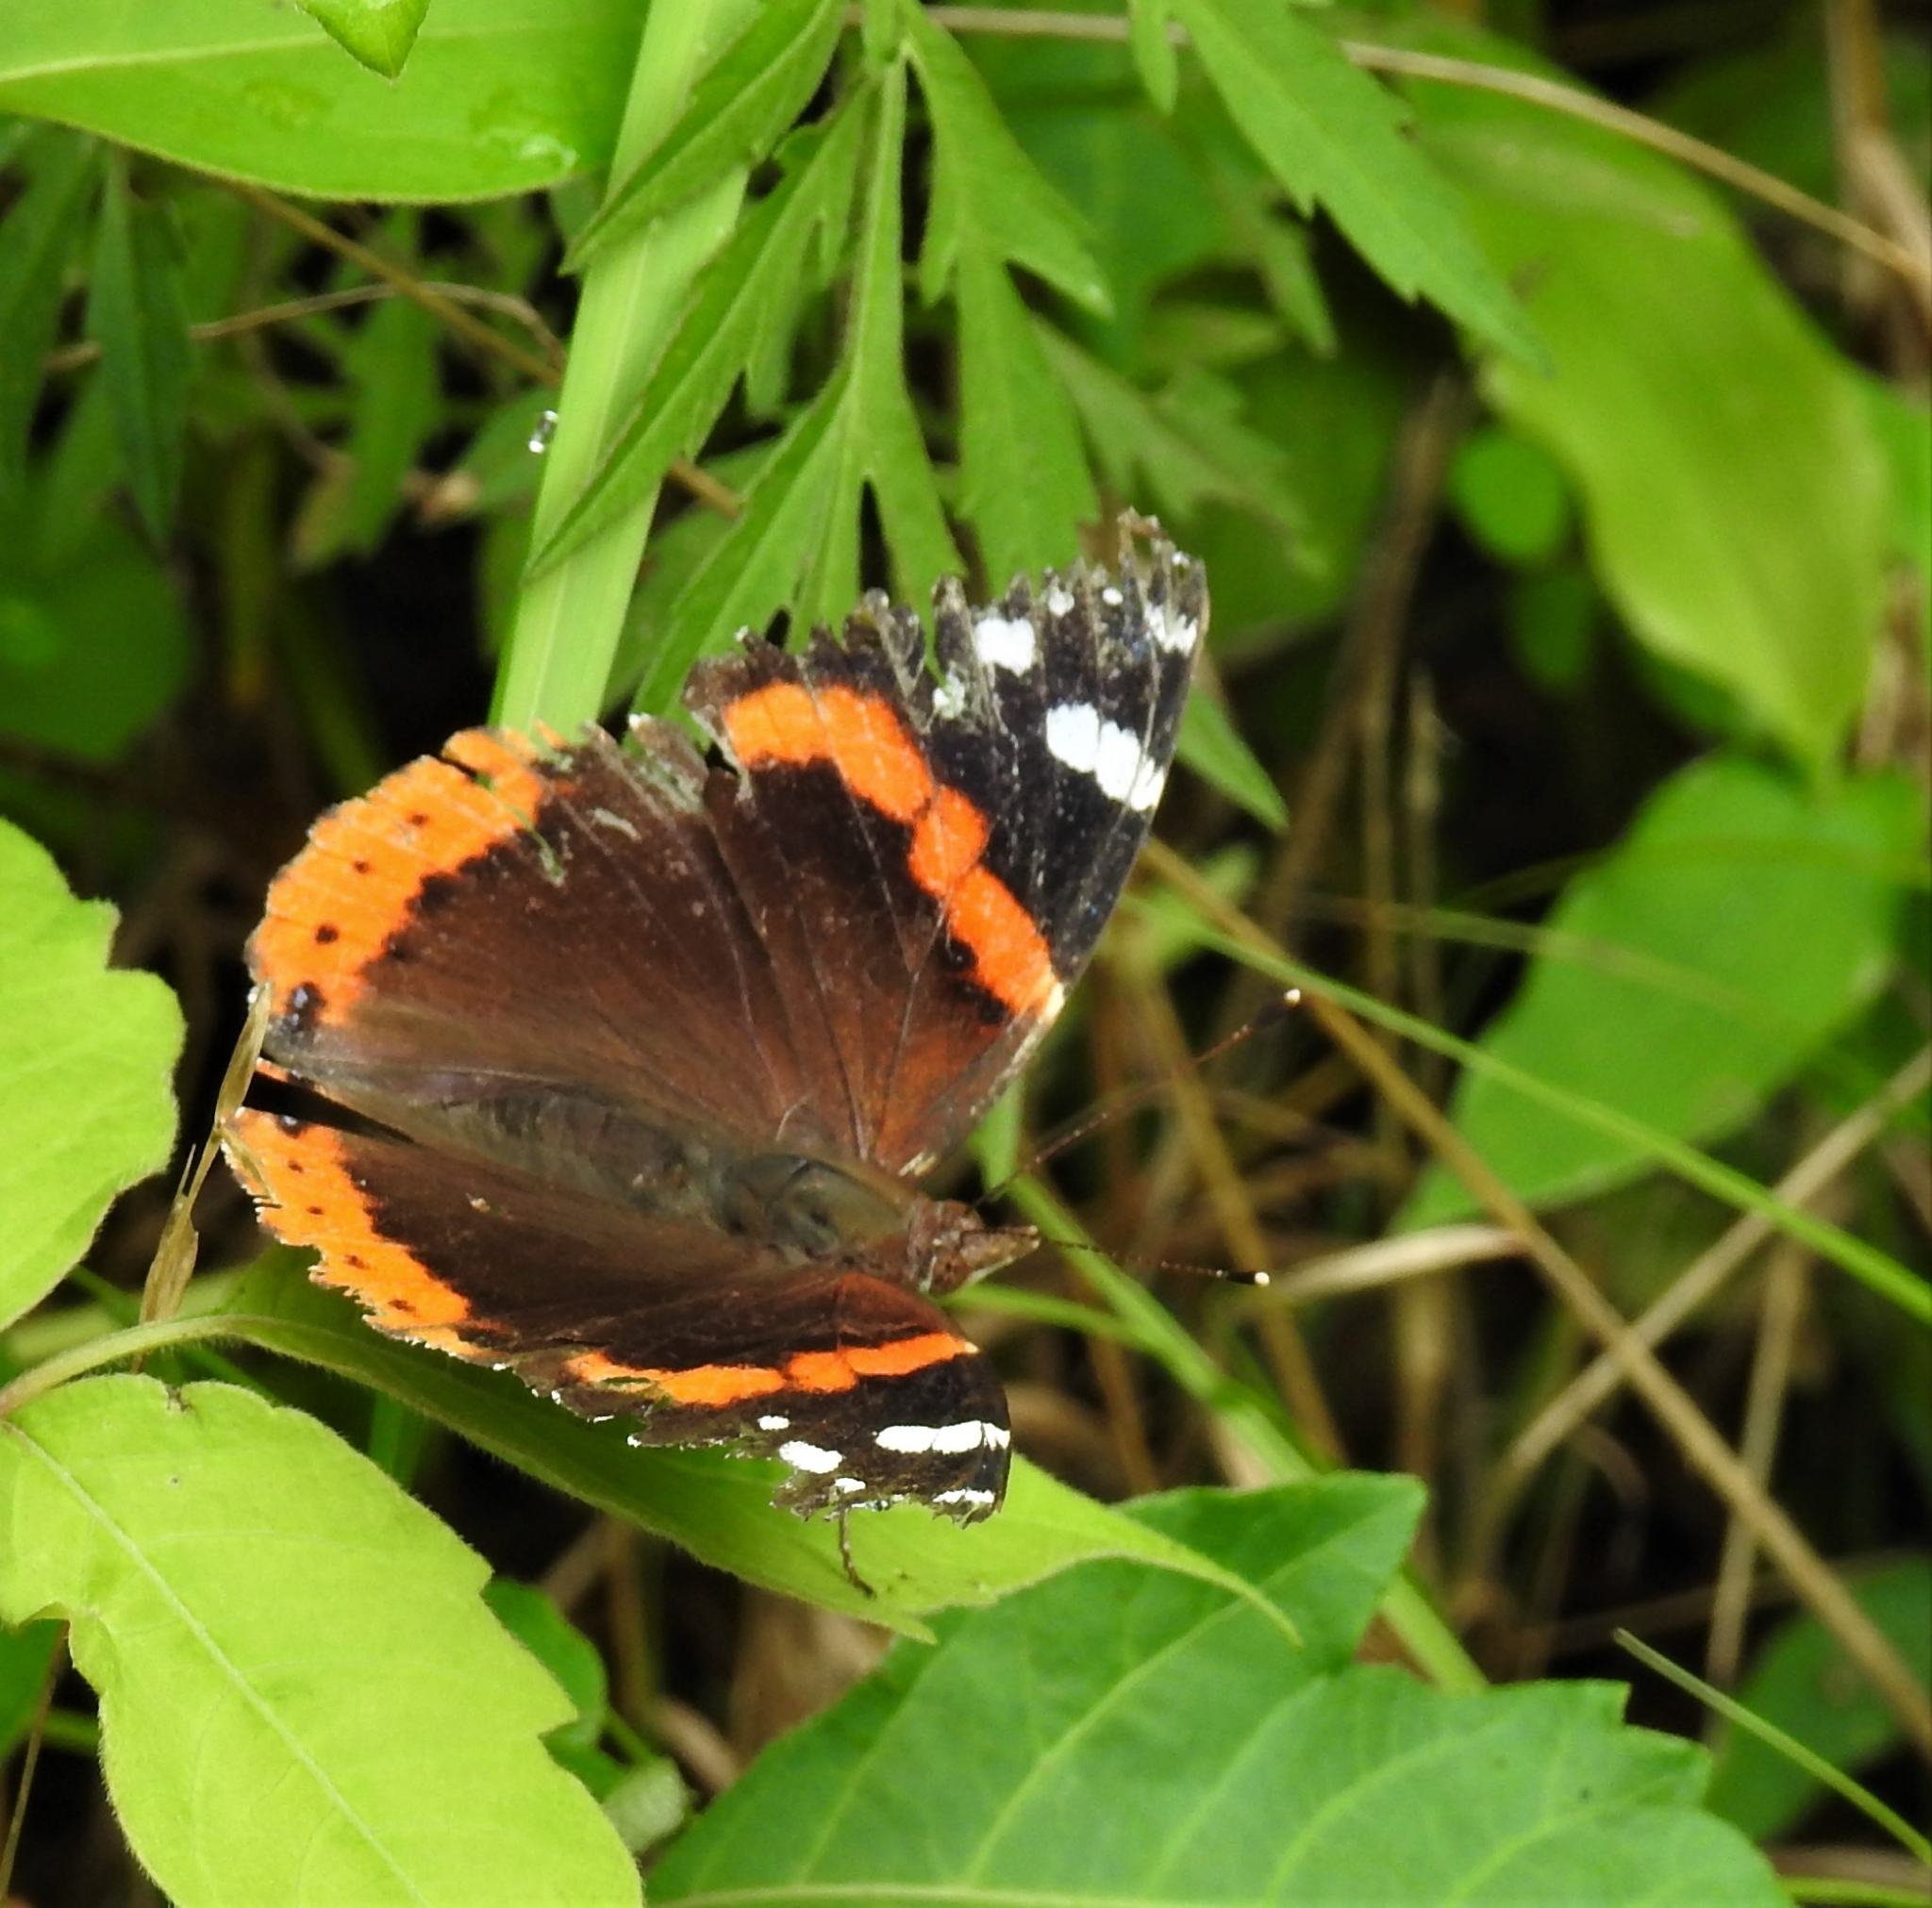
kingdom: Animalia
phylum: Arthropoda
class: Insecta
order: Lepidoptera
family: Nymphalidae
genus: Vanessa
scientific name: Vanessa atalanta
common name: Red admiral
